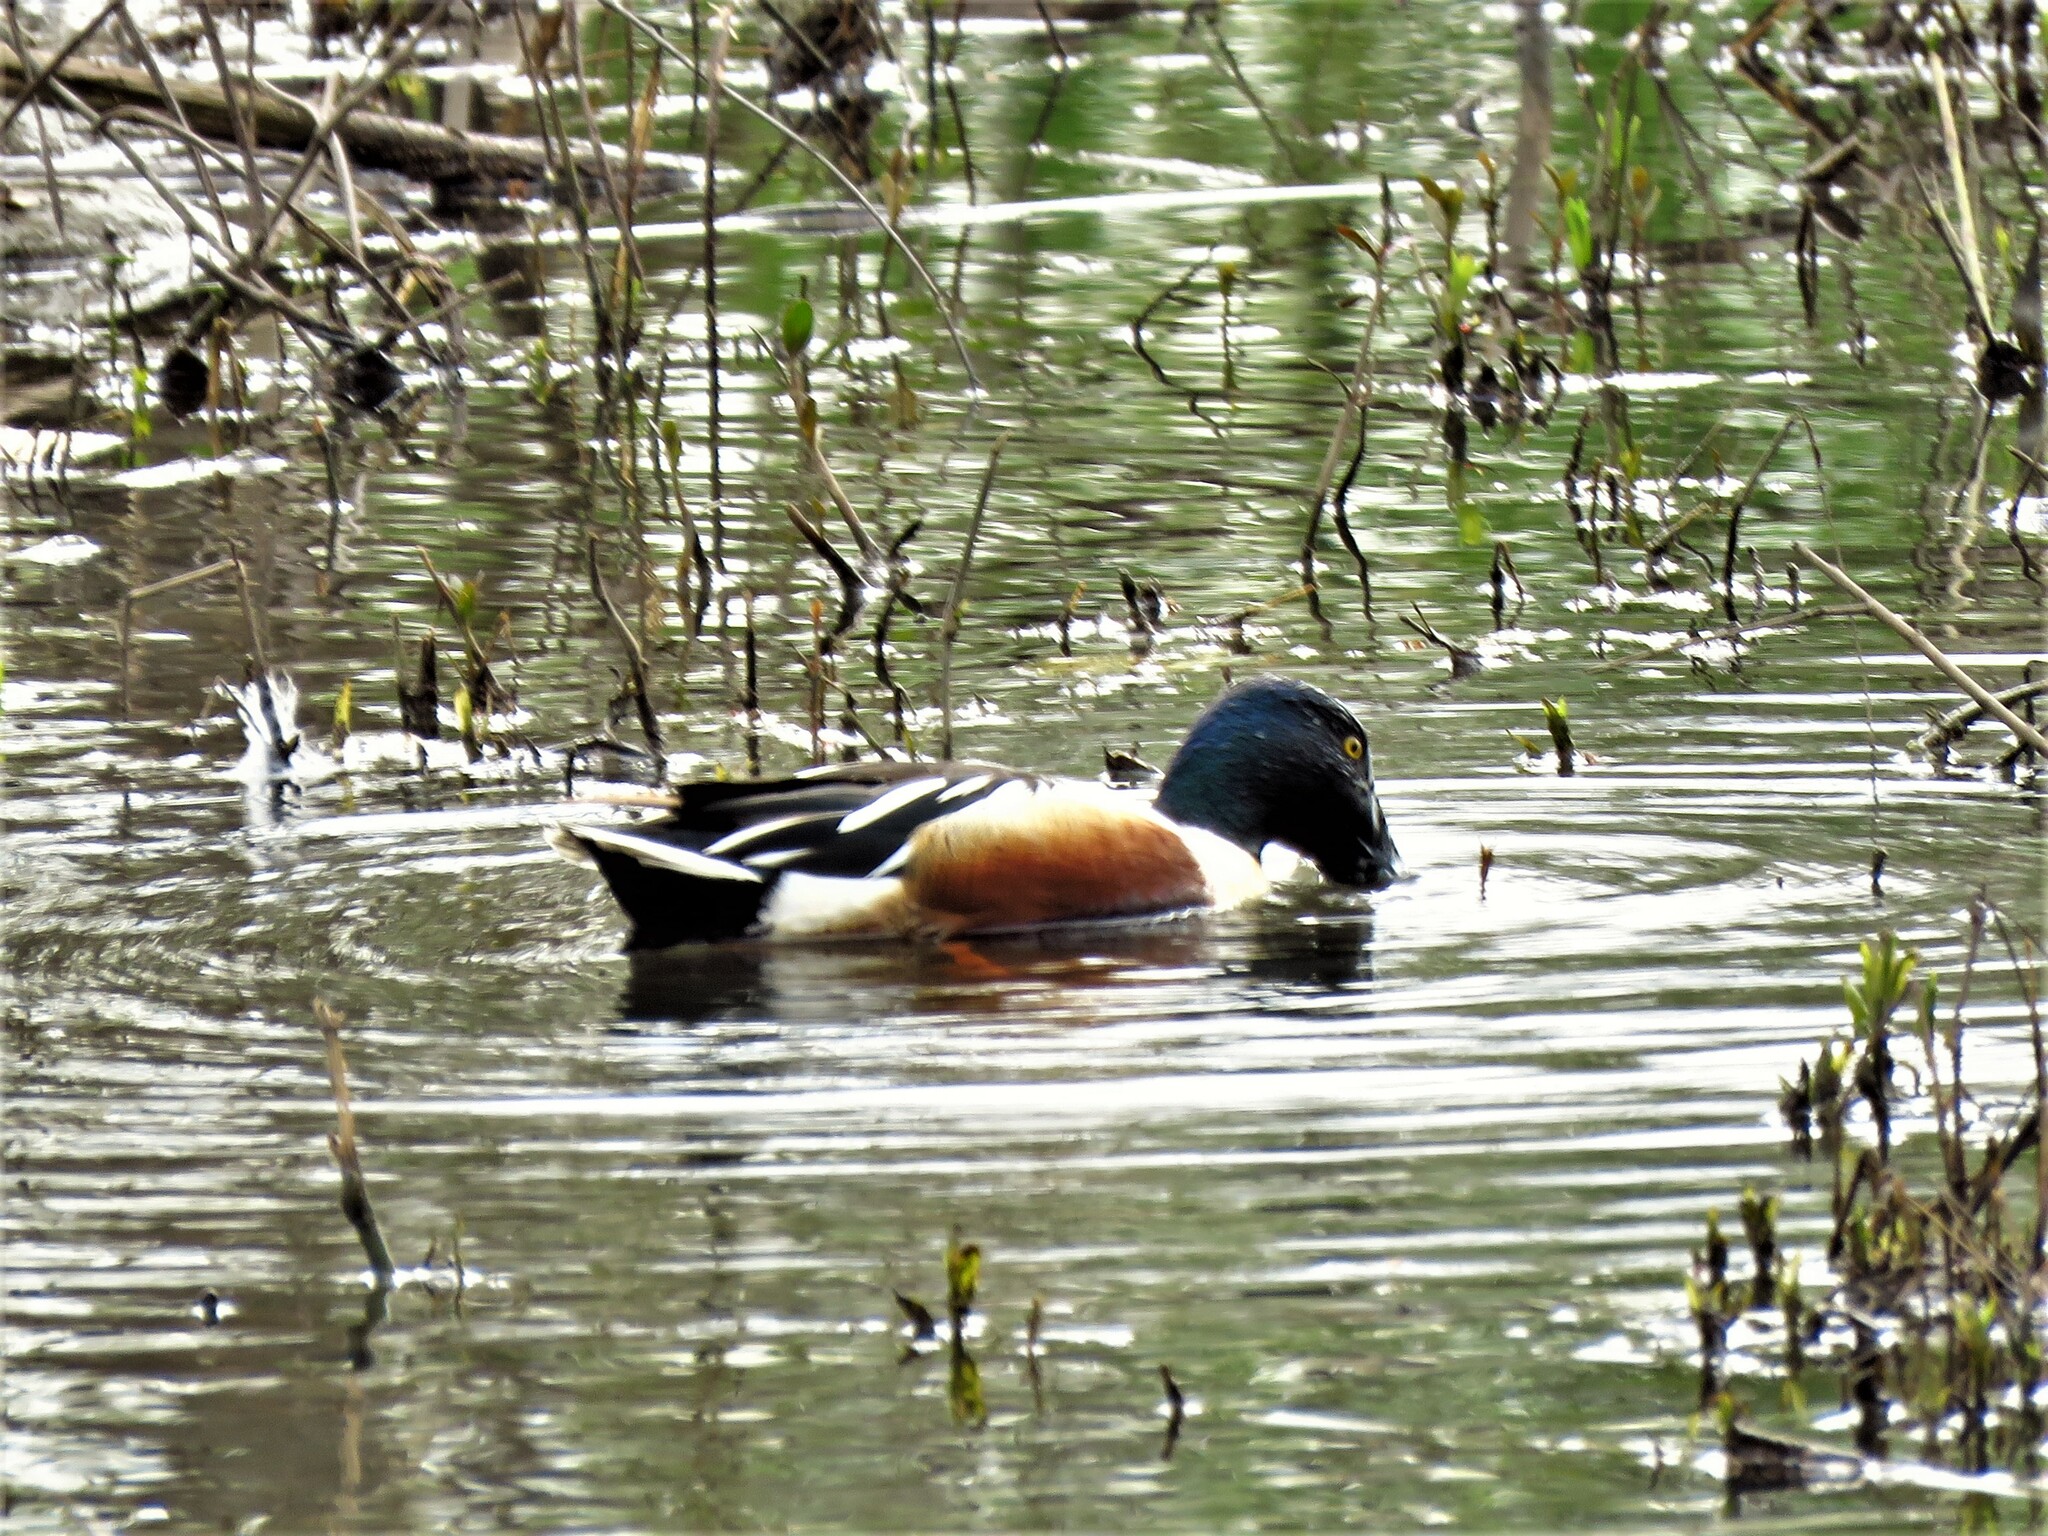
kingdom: Animalia
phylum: Chordata
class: Aves
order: Anseriformes
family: Anatidae
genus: Spatula
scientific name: Spatula clypeata
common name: Northern shoveler
